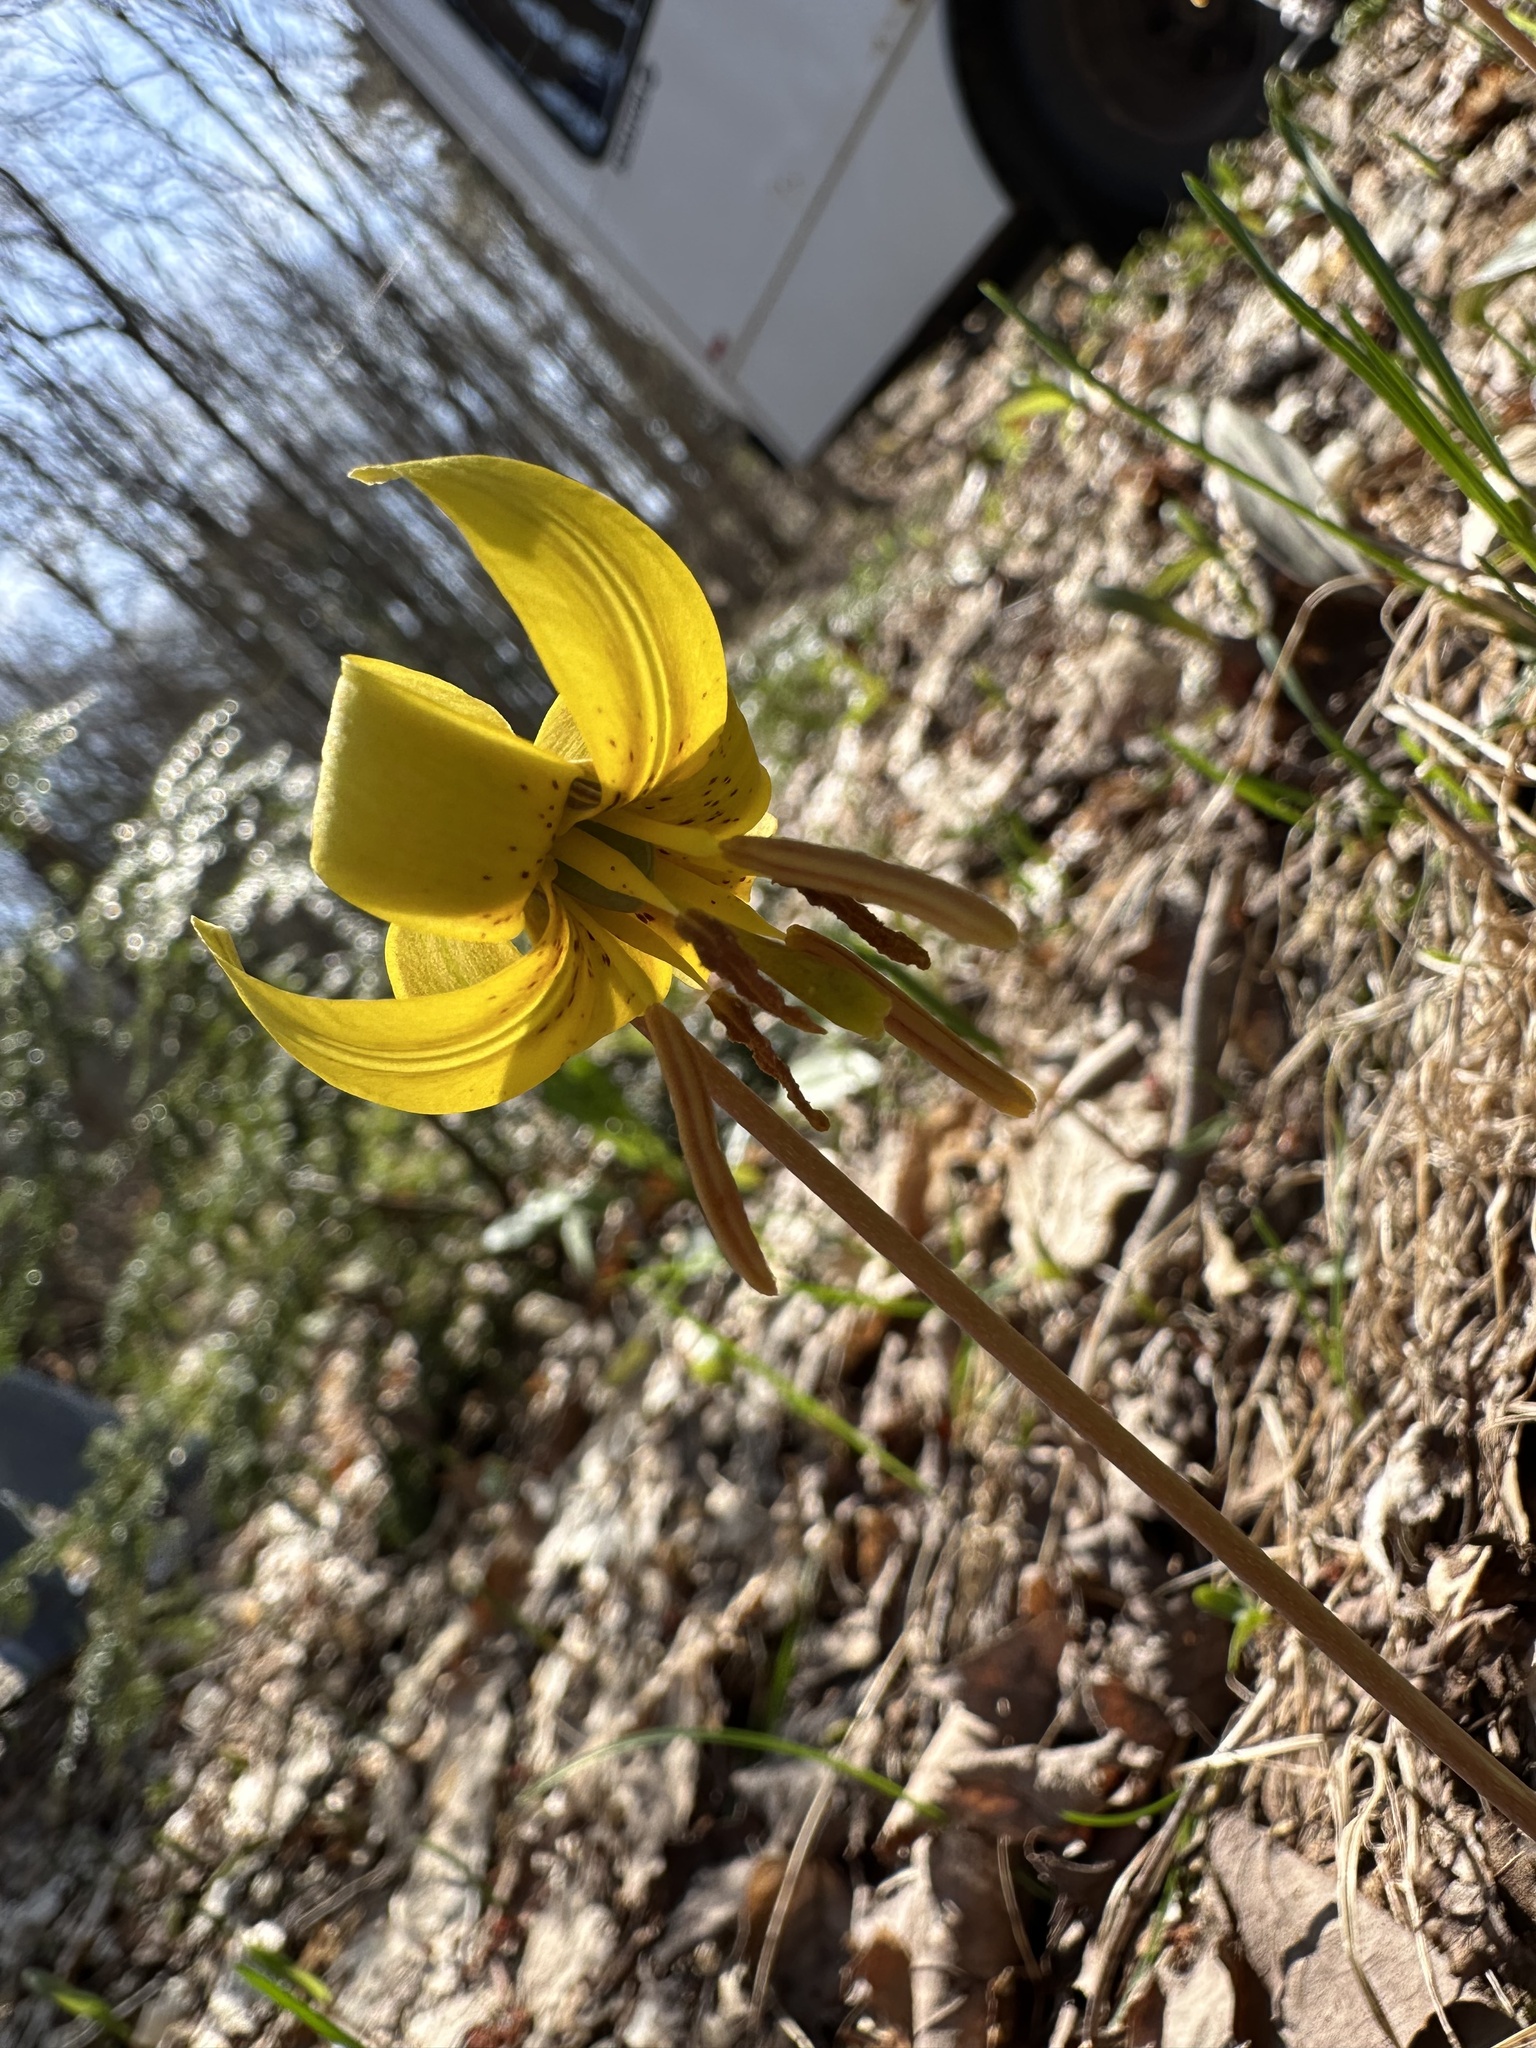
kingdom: Plantae
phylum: Tracheophyta
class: Liliopsida
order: Liliales
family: Liliaceae
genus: Erythronium
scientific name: Erythronium americanum
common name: Yellow adder's-tongue
